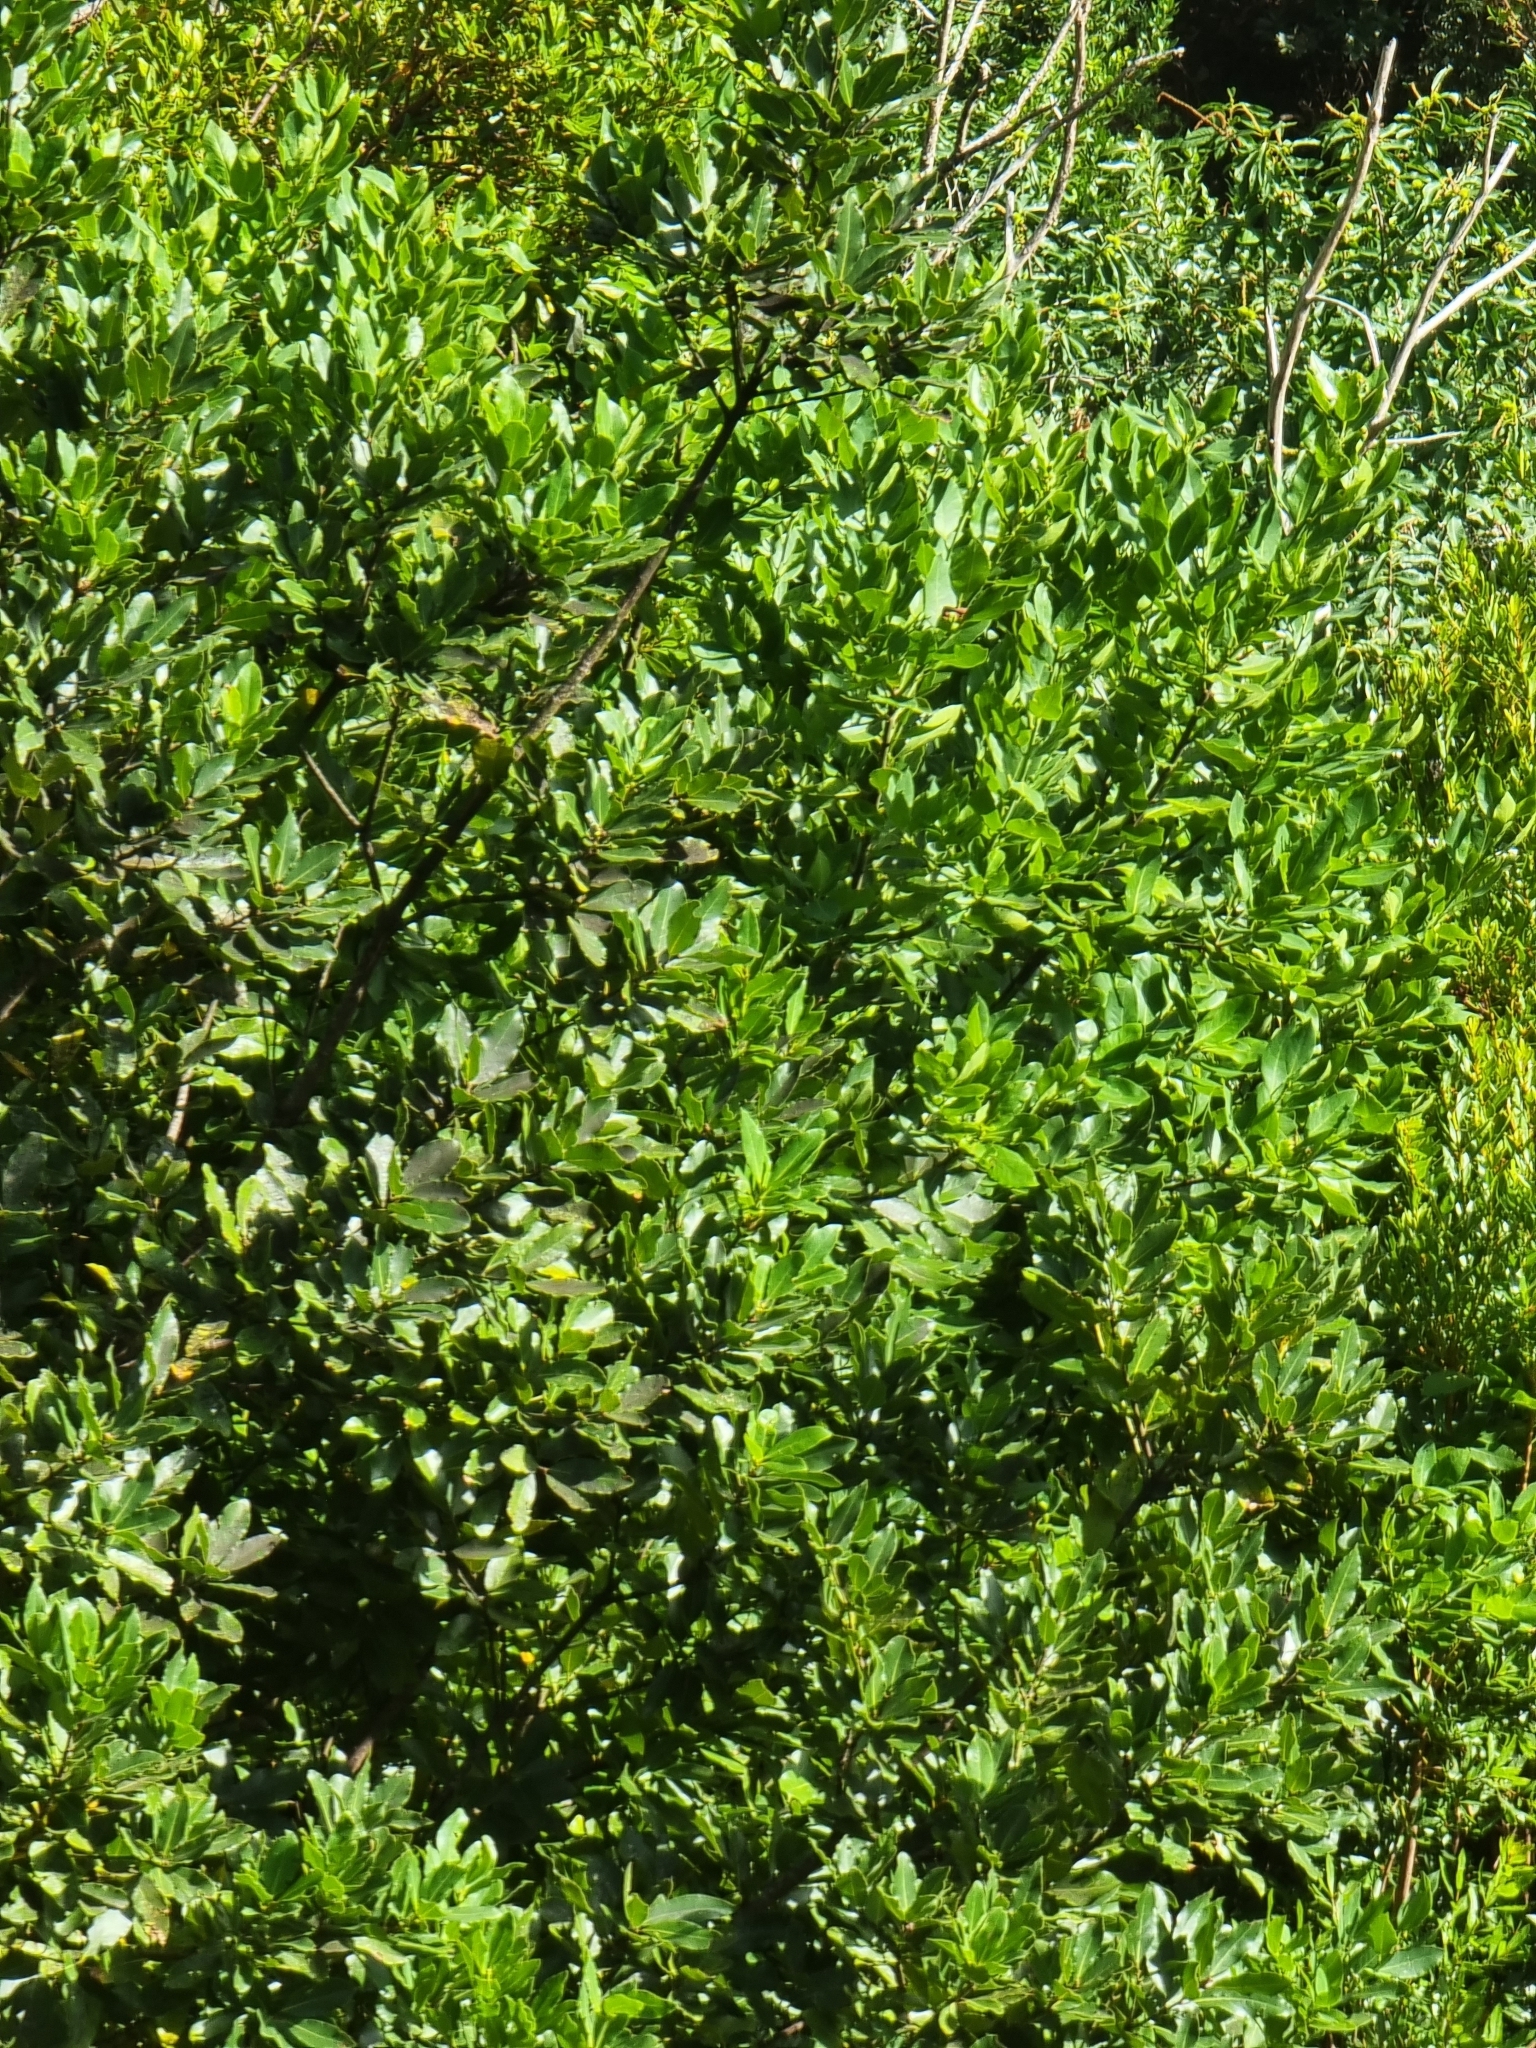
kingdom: Plantae
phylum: Tracheophyta
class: Magnoliopsida
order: Laurales
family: Lauraceae
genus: Laurus
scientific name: Laurus novocanariensis
